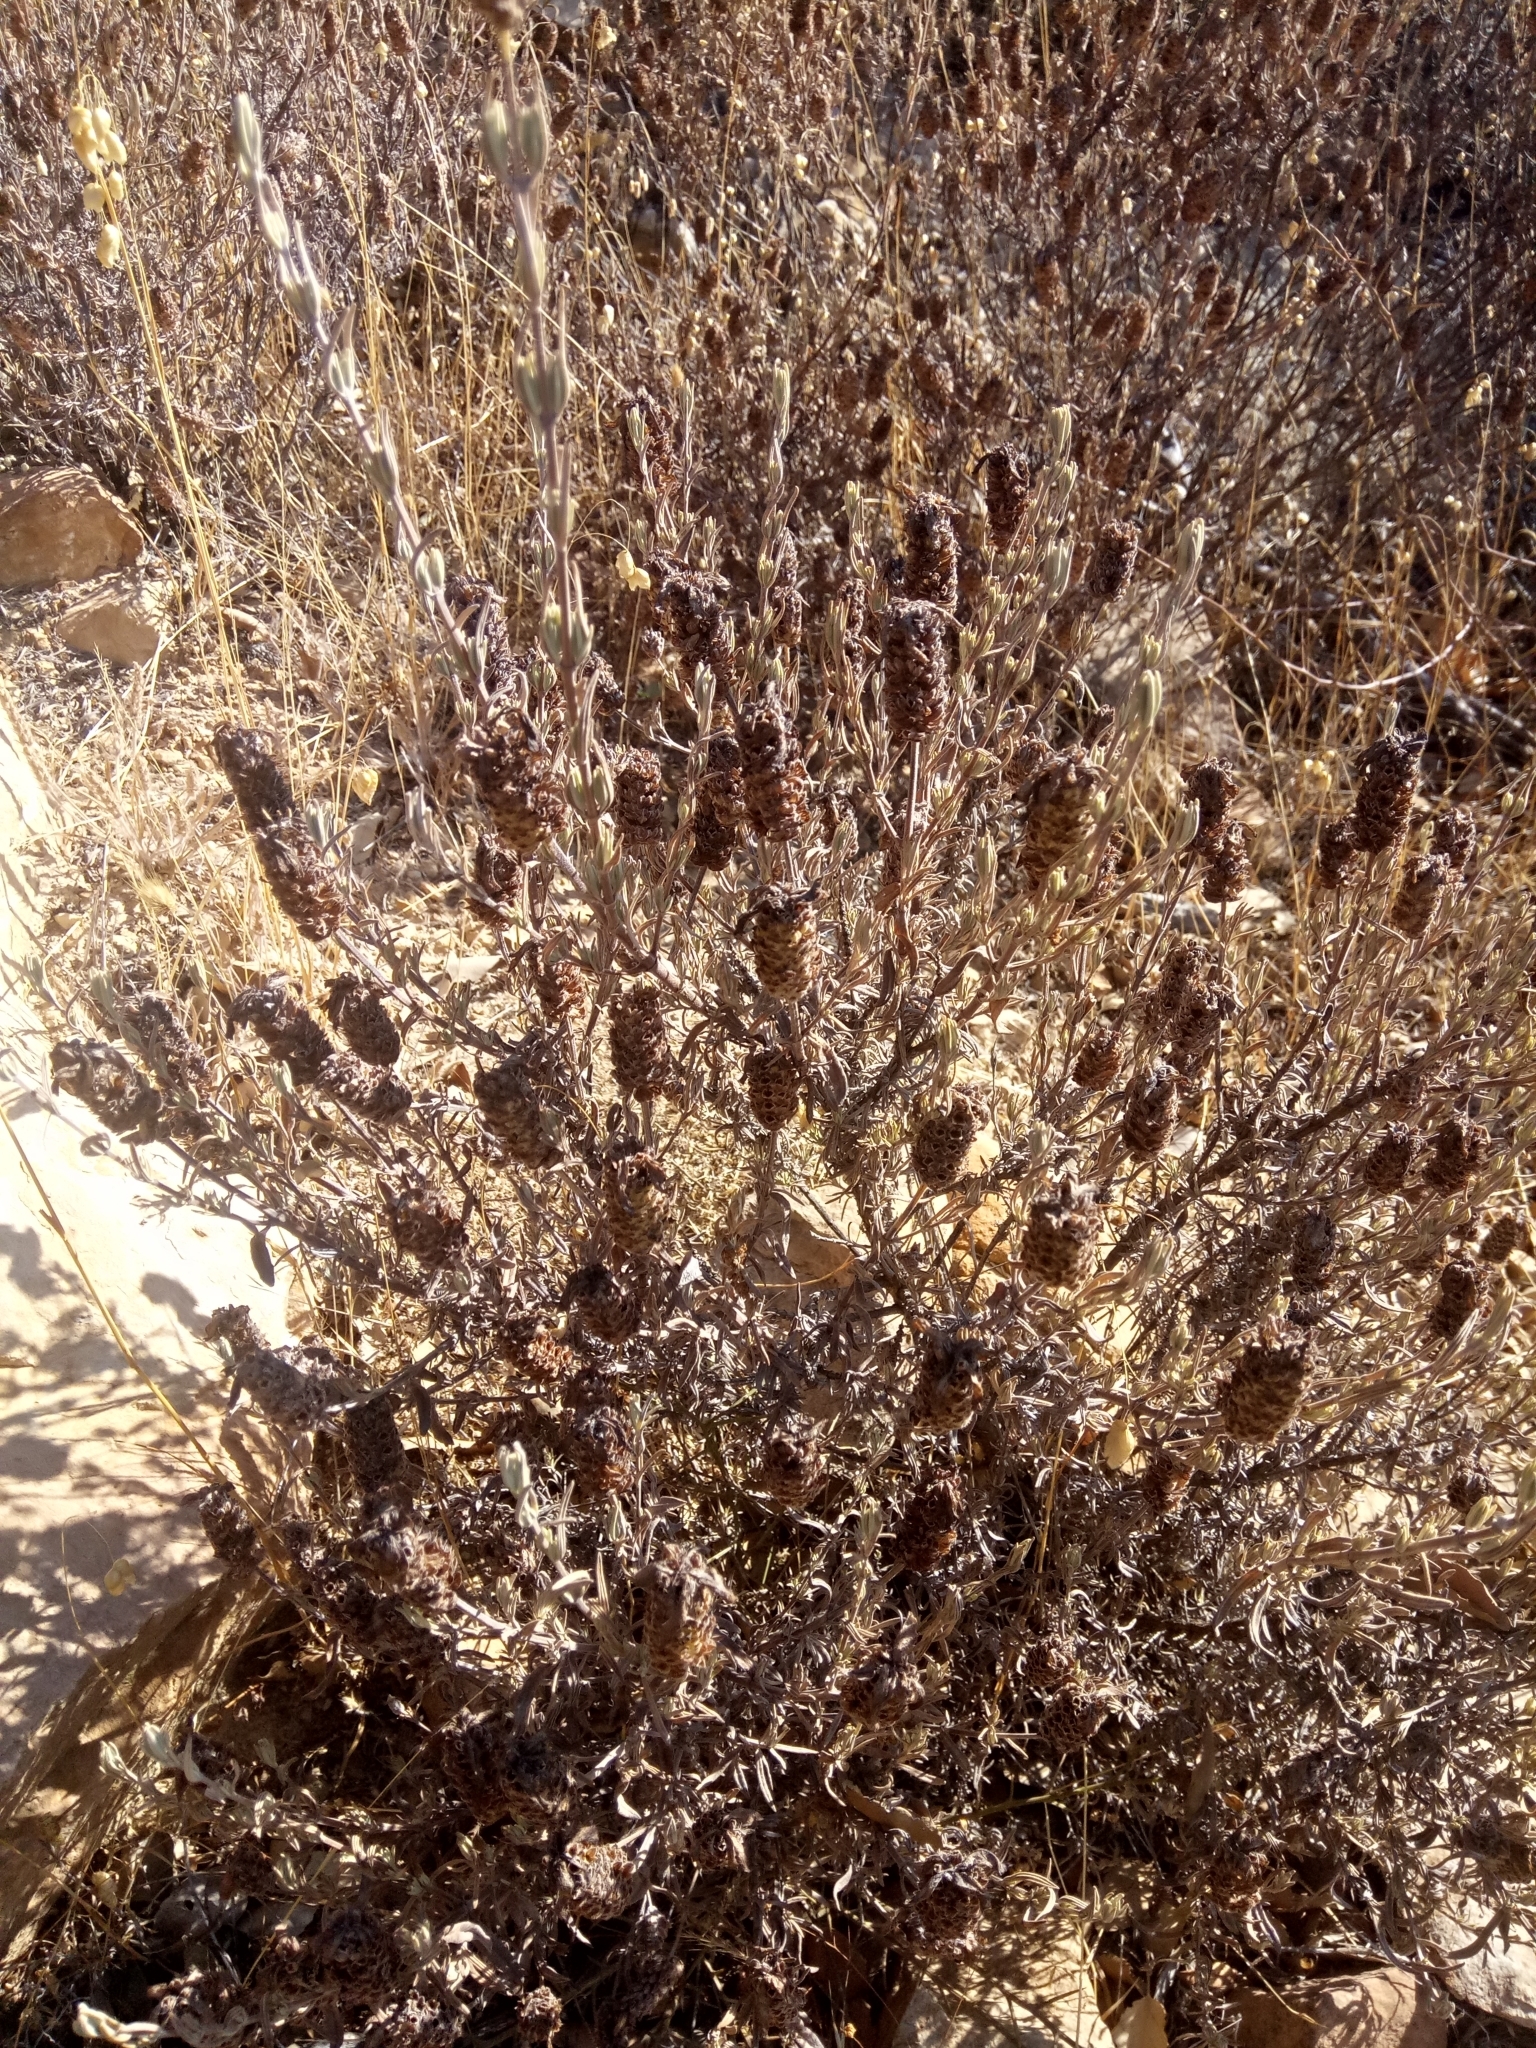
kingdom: Plantae
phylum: Tracheophyta
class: Magnoliopsida
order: Lamiales
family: Lamiaceae
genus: Lavandula
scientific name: Lavandula stoechas
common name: French lavender
